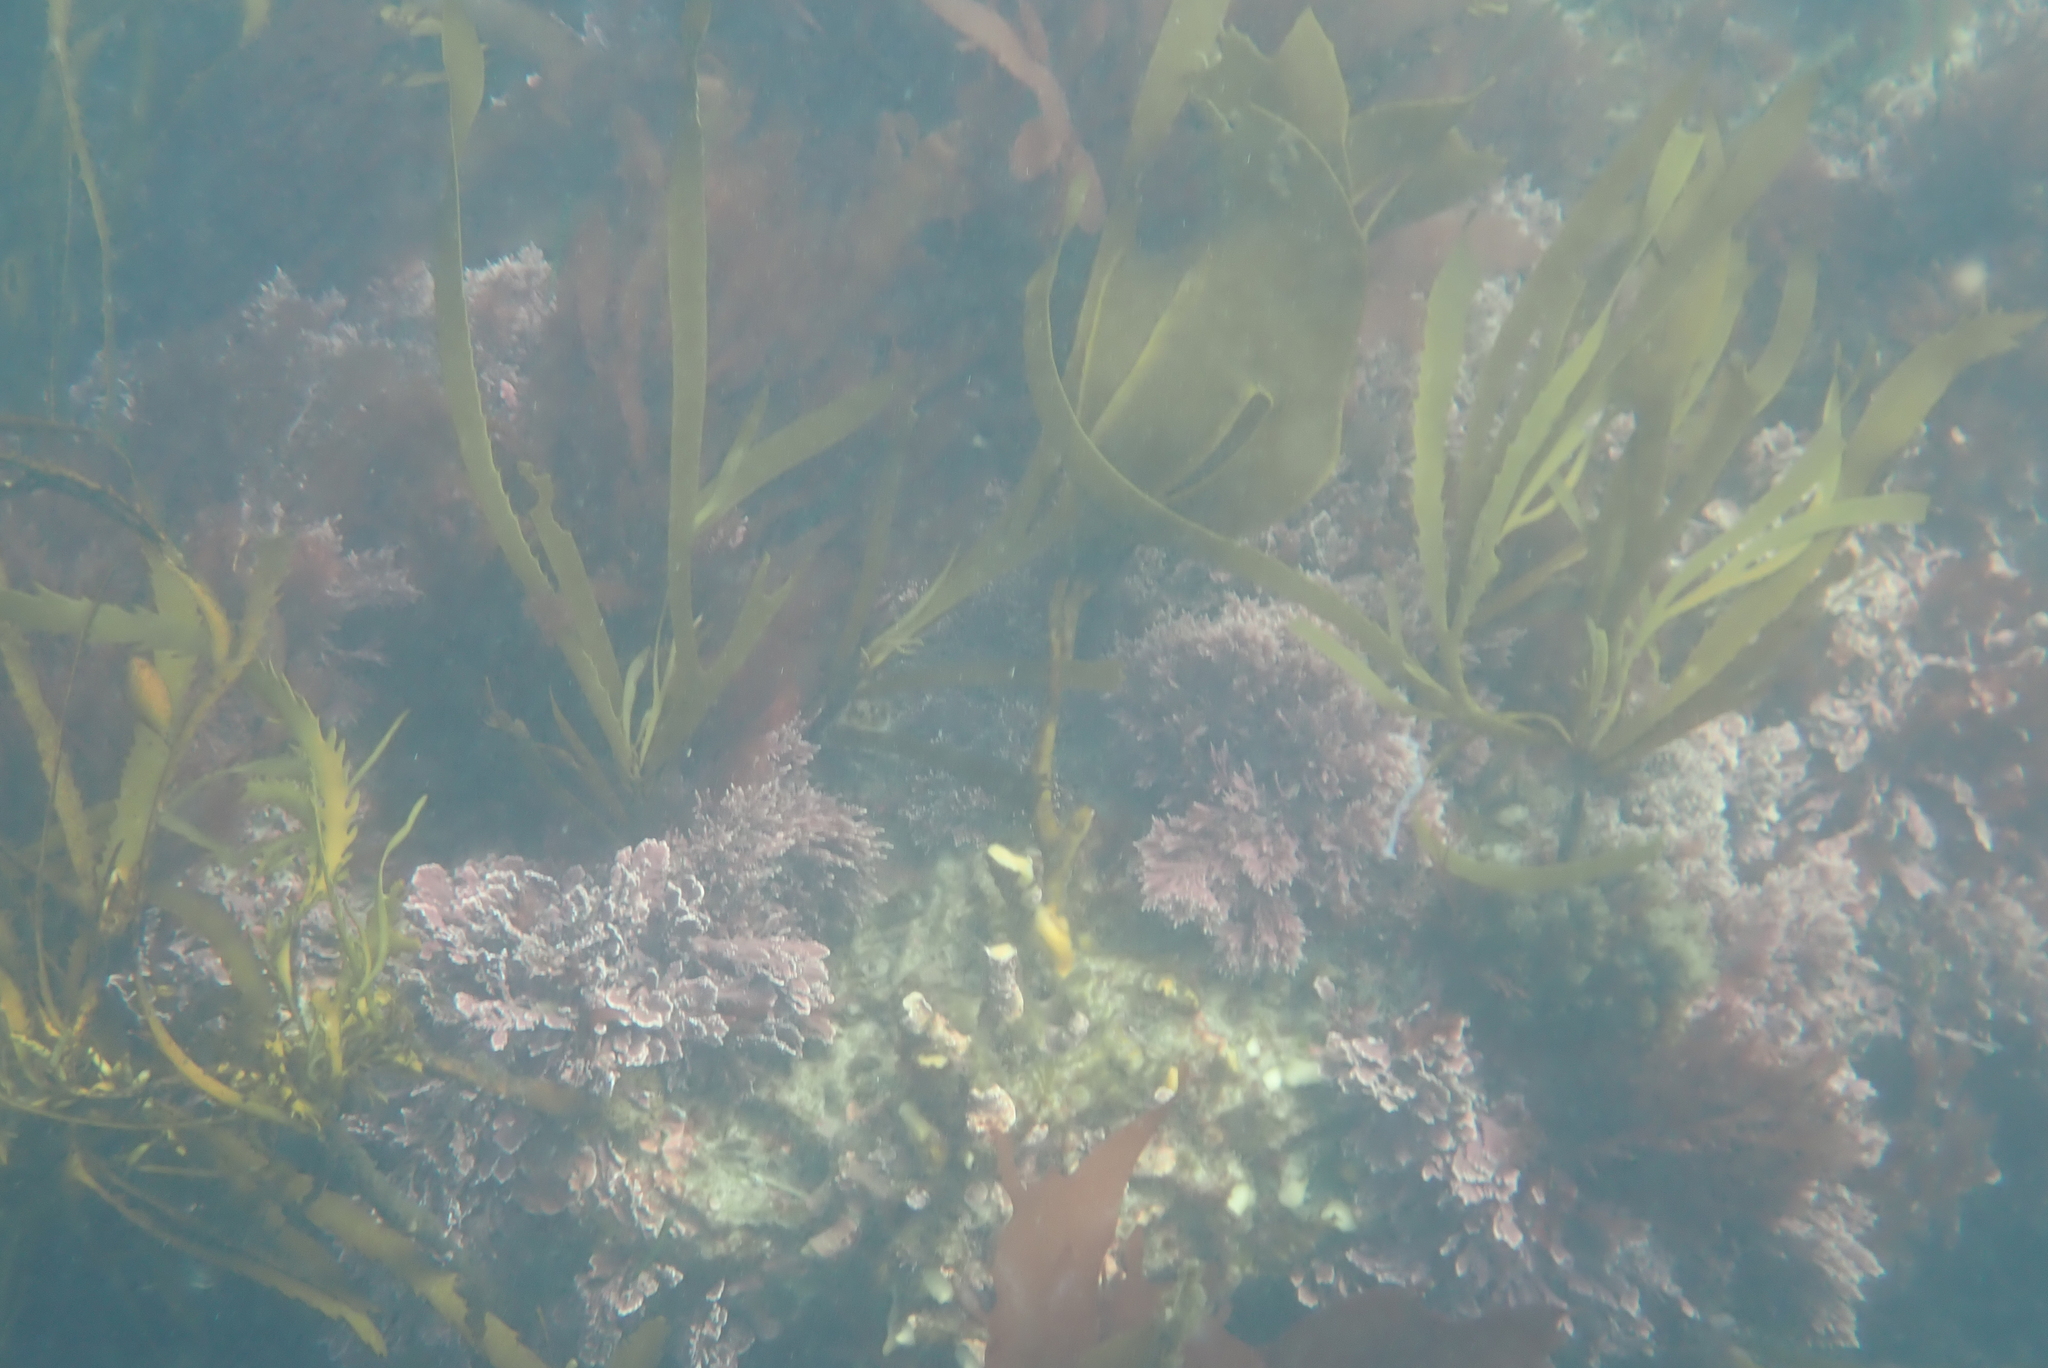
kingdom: Chromista
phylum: Ochrophyta
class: Phaeophyceae
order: Fucales
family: Seirococcaceae
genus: Marginariella
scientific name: Marginariella boryana
